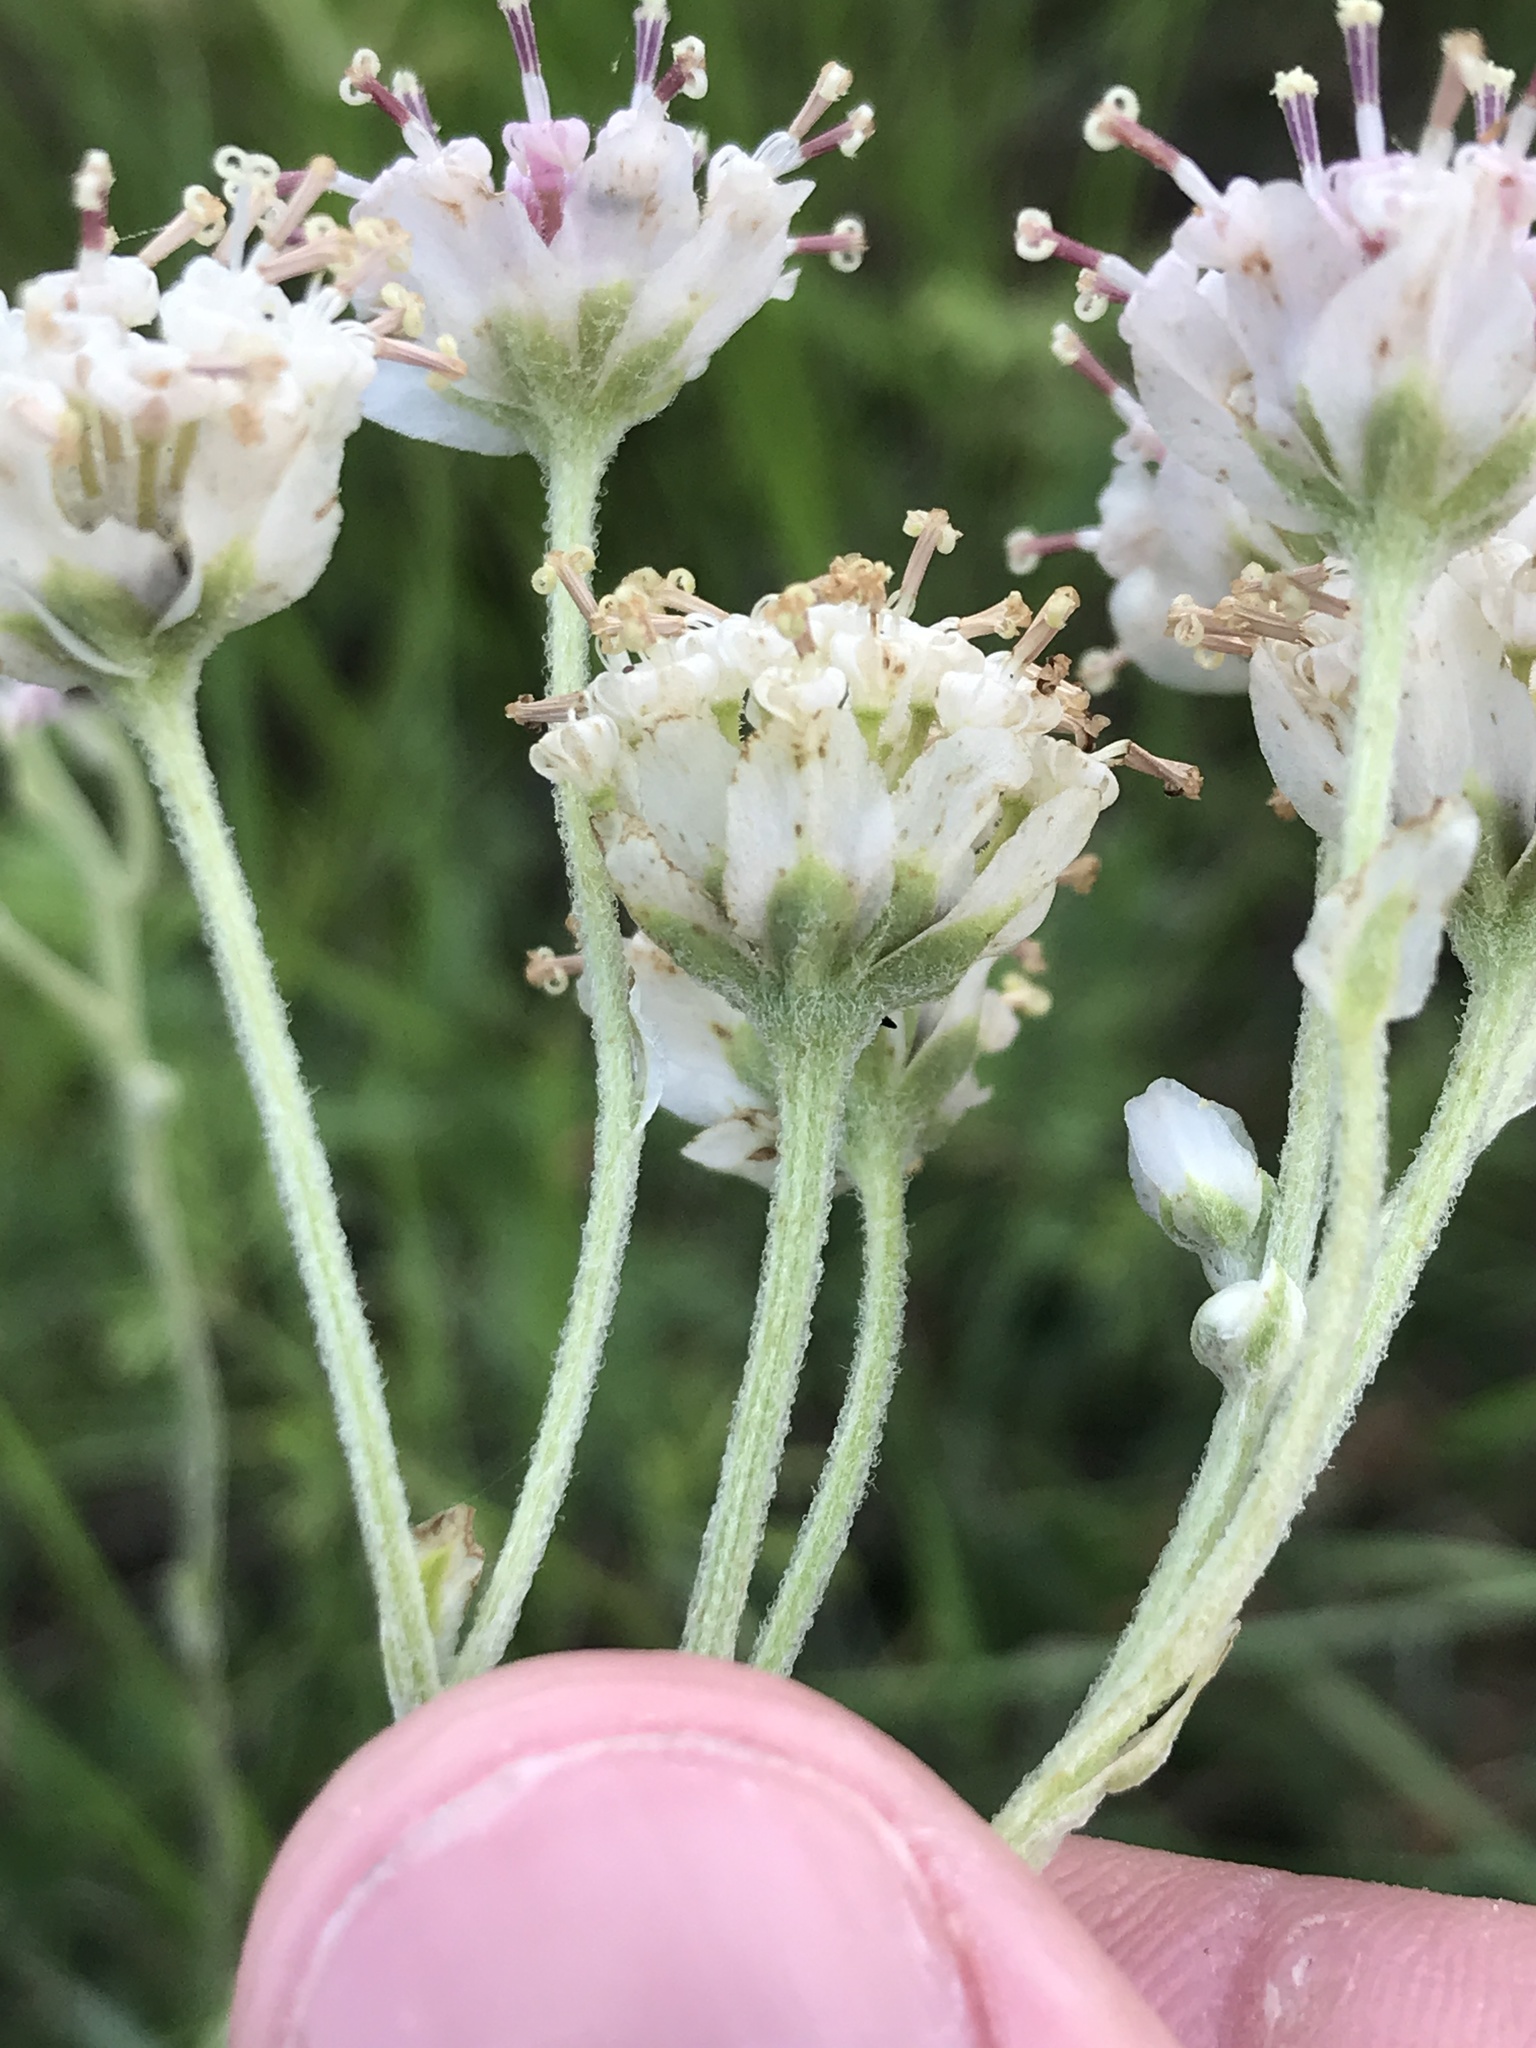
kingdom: Plantae
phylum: Tracheophyta
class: Magnoliopsida
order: Asterales
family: Asteraceae
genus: Hymenopappus
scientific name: Hymenopappus artemisiifolius
